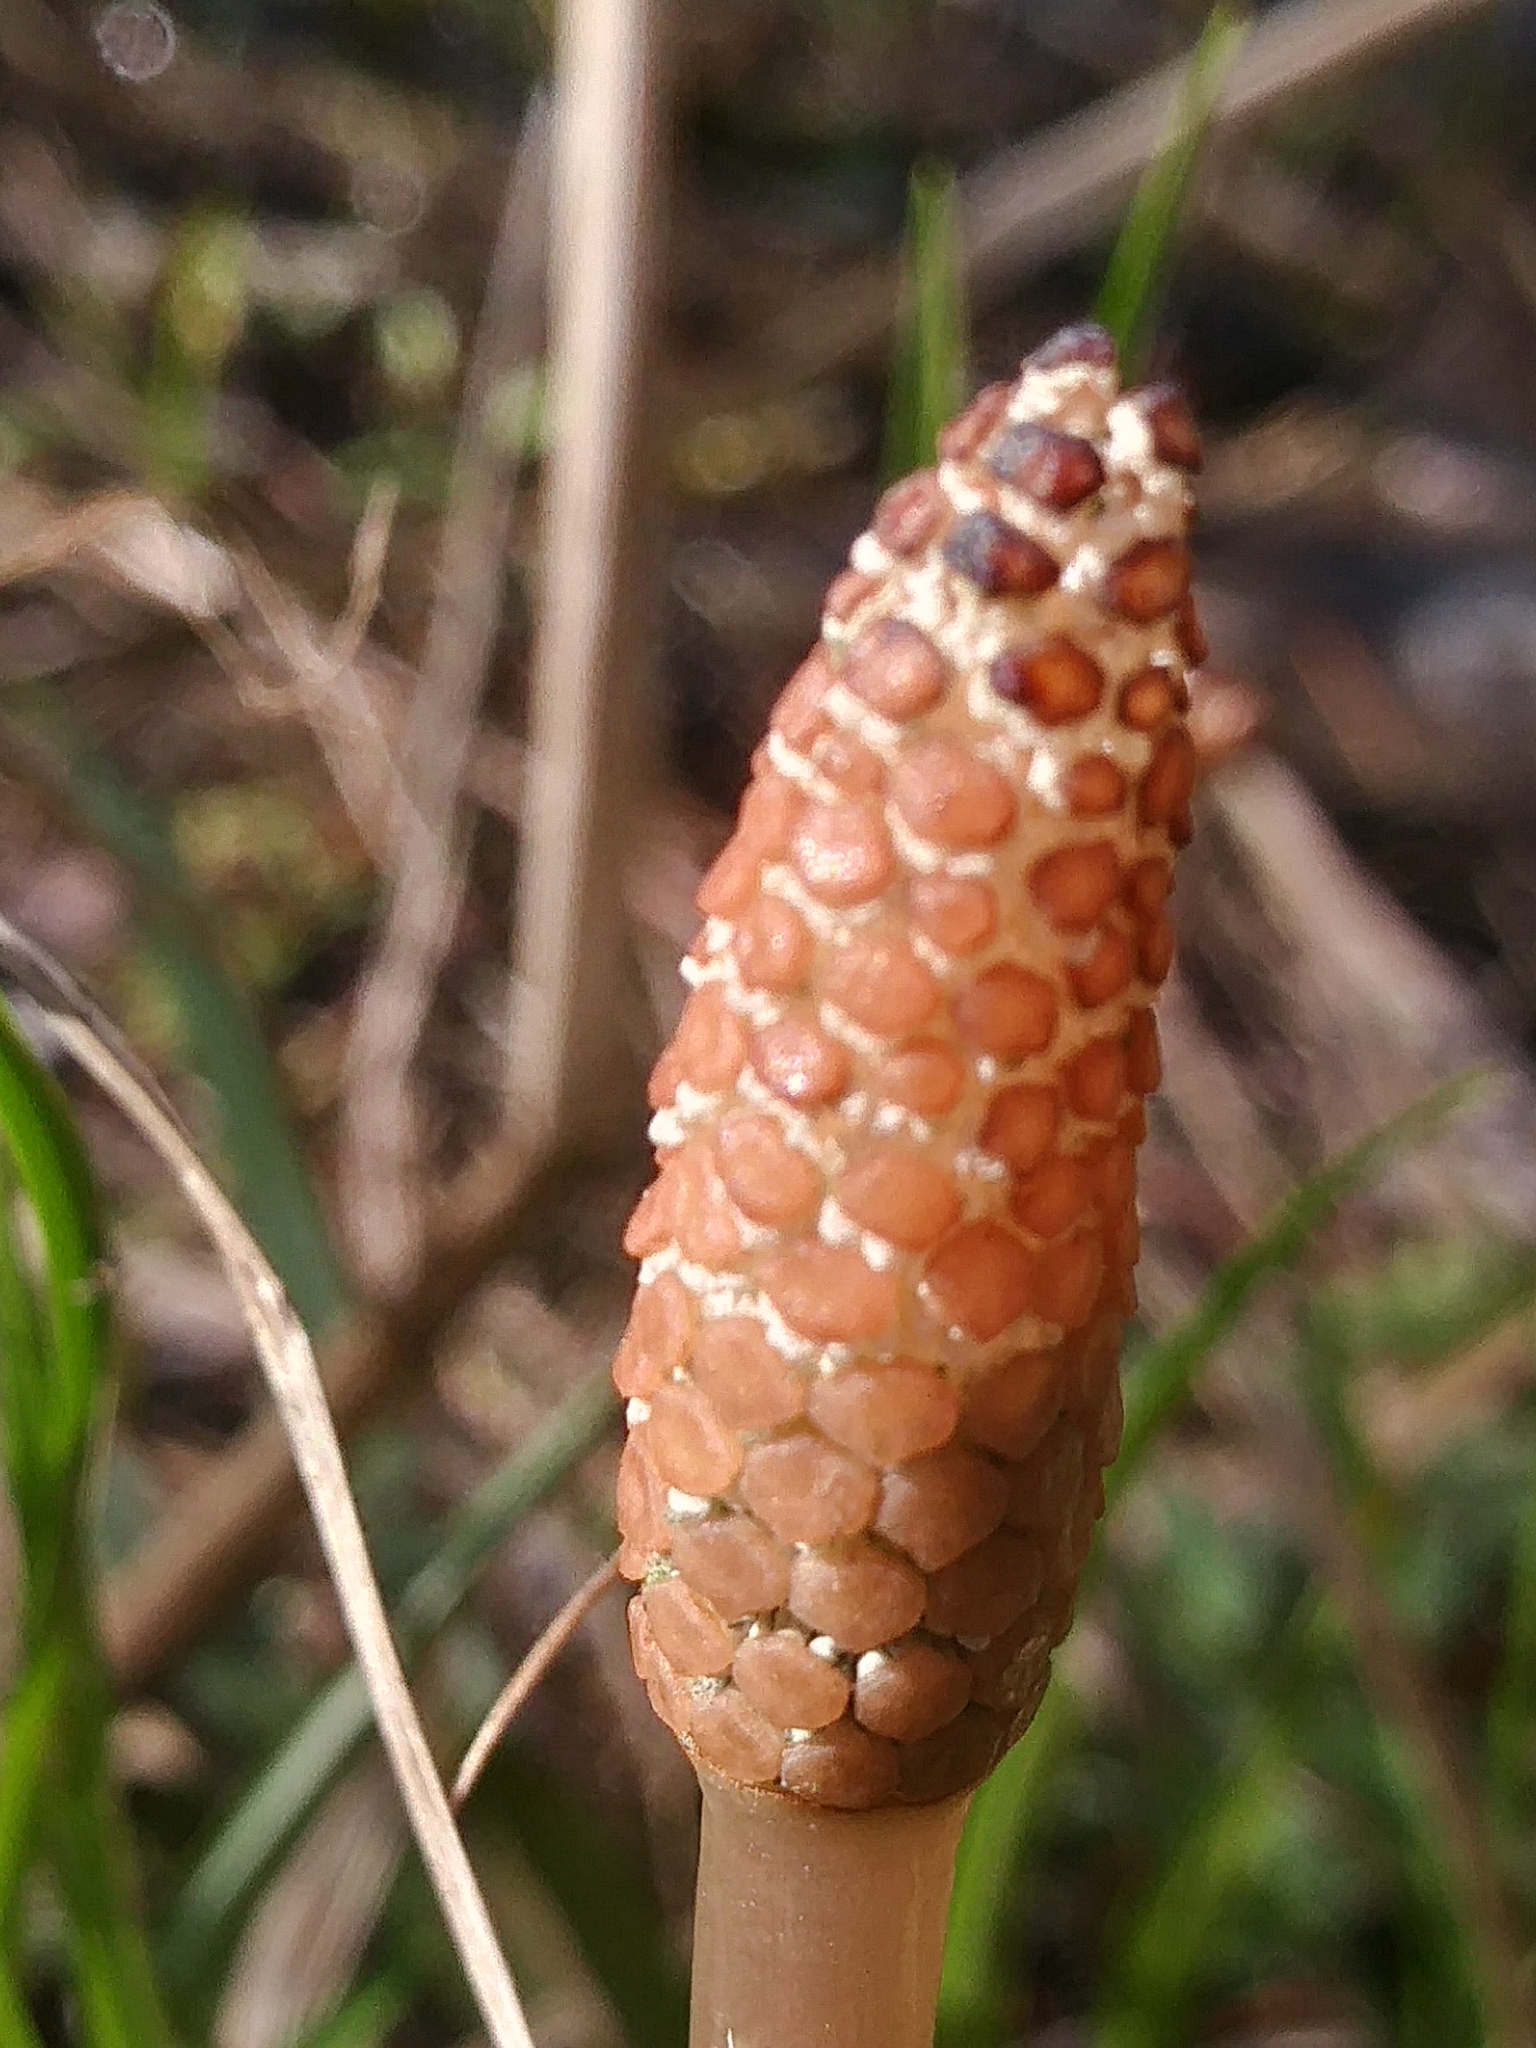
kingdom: Plantae
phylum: Tracheophyta
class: Polypodiopsida
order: Equisetales
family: Equisetaceae
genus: Equisetum
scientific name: Equisetum arvense
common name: Field horsetail
